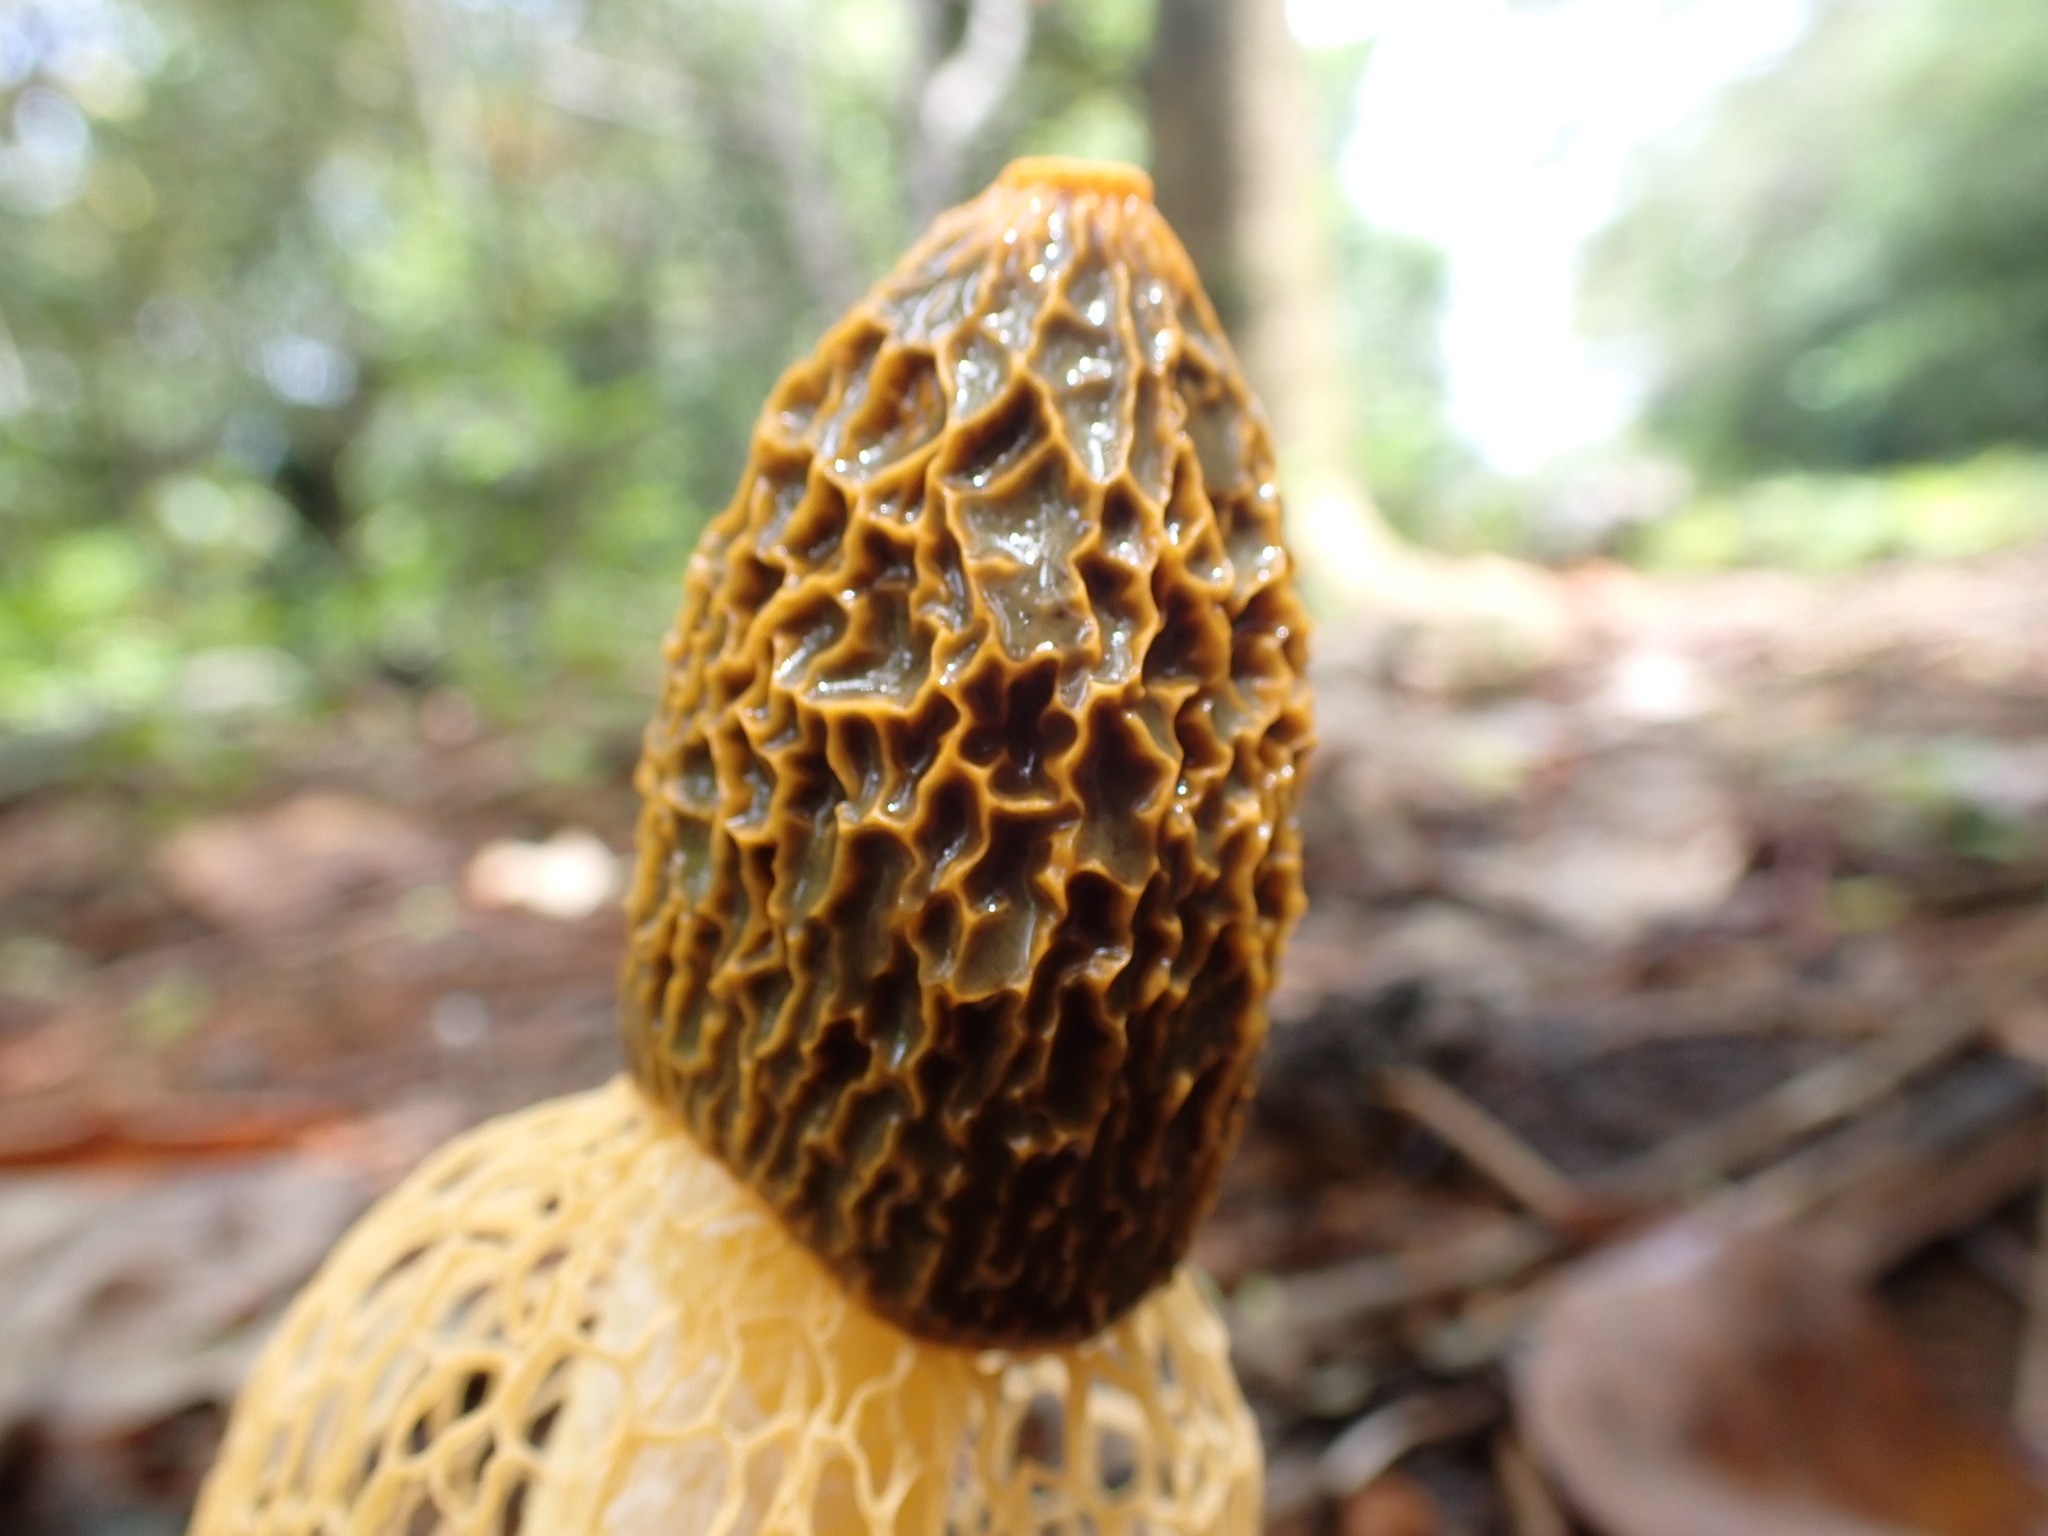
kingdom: Fungi
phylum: Basidiomycota
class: Agaricomycetes
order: Phallales
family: Phallaceae
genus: Phallus
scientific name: Phallus multicolor
